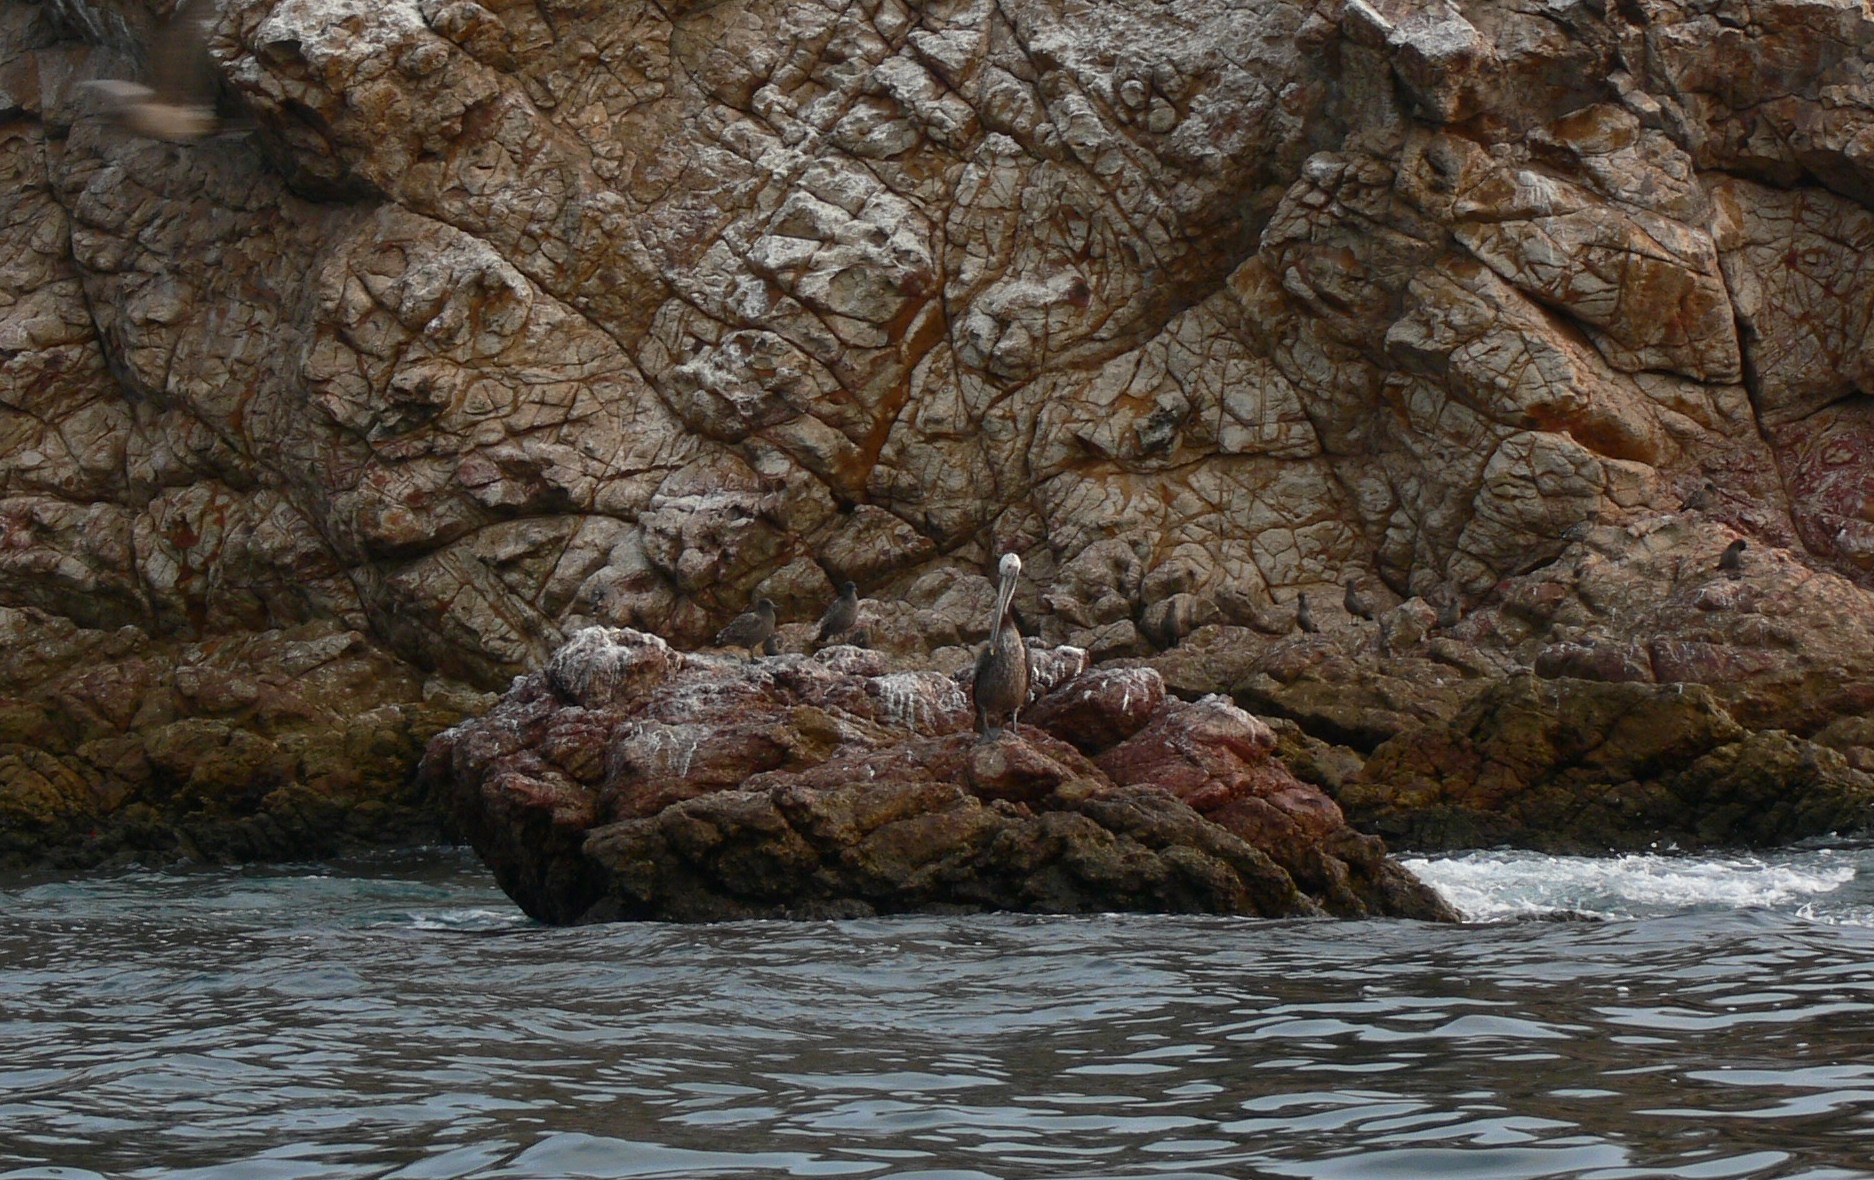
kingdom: Animalia
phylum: Chordata
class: Aves
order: Pelecaniformes
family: Pelecanidae
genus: Pelecanus
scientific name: Pelecanus occidentalis
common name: Brown pelican
